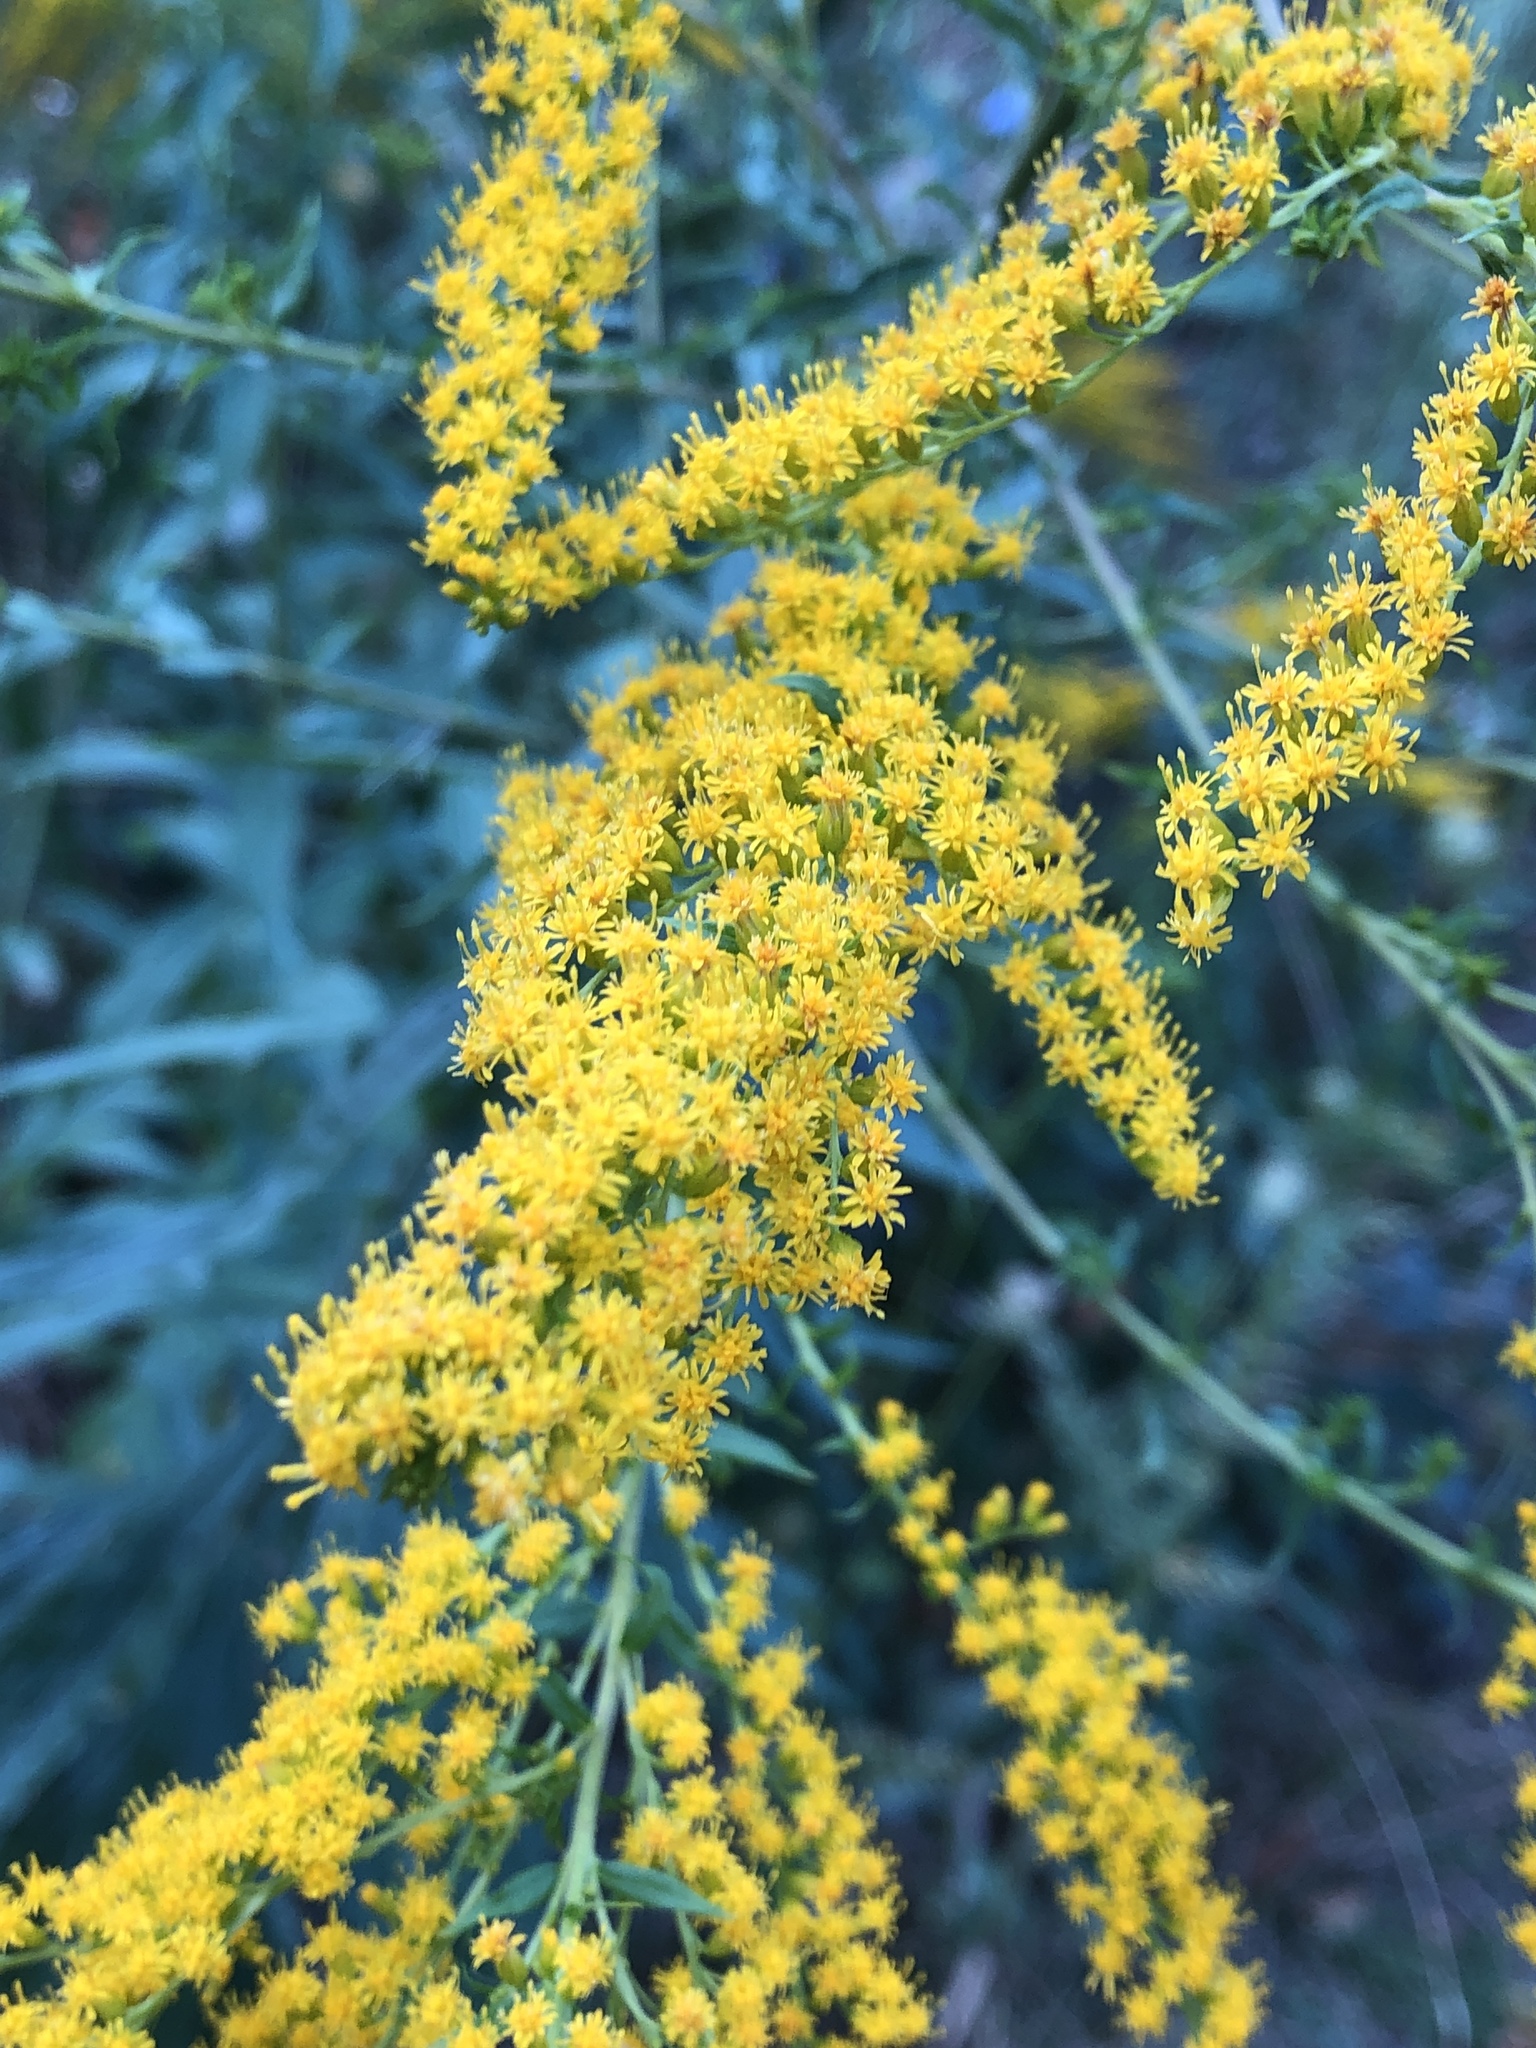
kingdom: Plantae
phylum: Tracheophyta
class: Magnoliopsida
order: Asterales
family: Asteraceae
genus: Solidago
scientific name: Solidago canadensis
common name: Canada goldenrod
